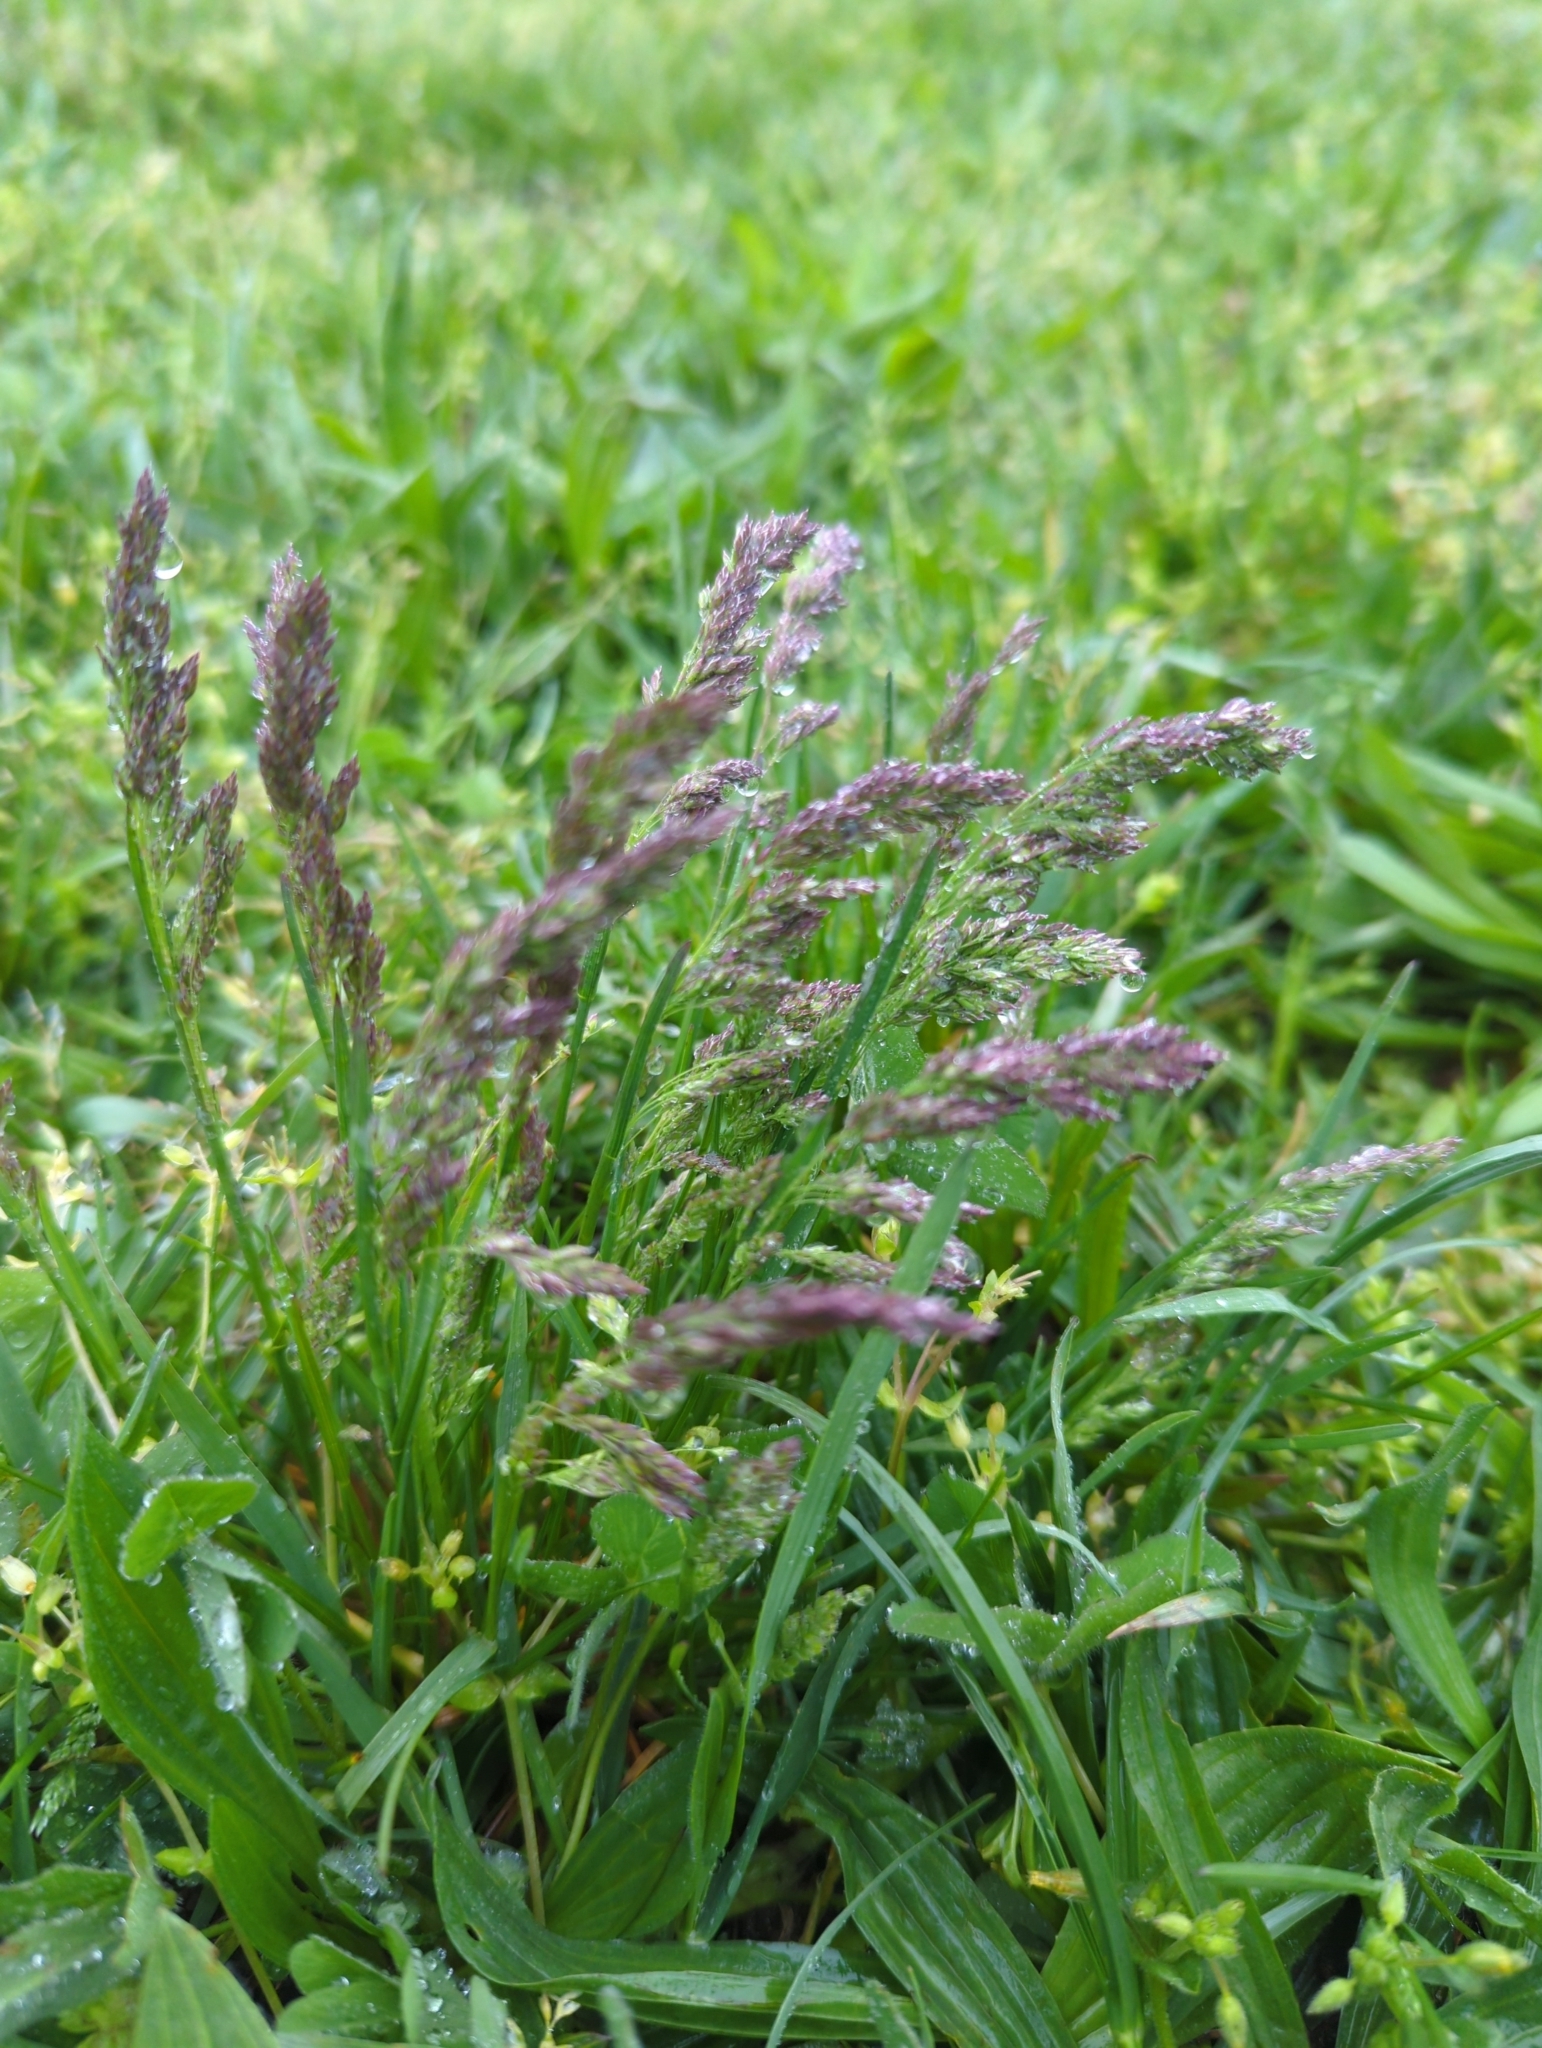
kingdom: Plantae
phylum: Tracheophyta
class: Liliopsida
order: Poales
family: Poaceae
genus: Poa
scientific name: Poa pratensis
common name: Kentucky bluegrass
